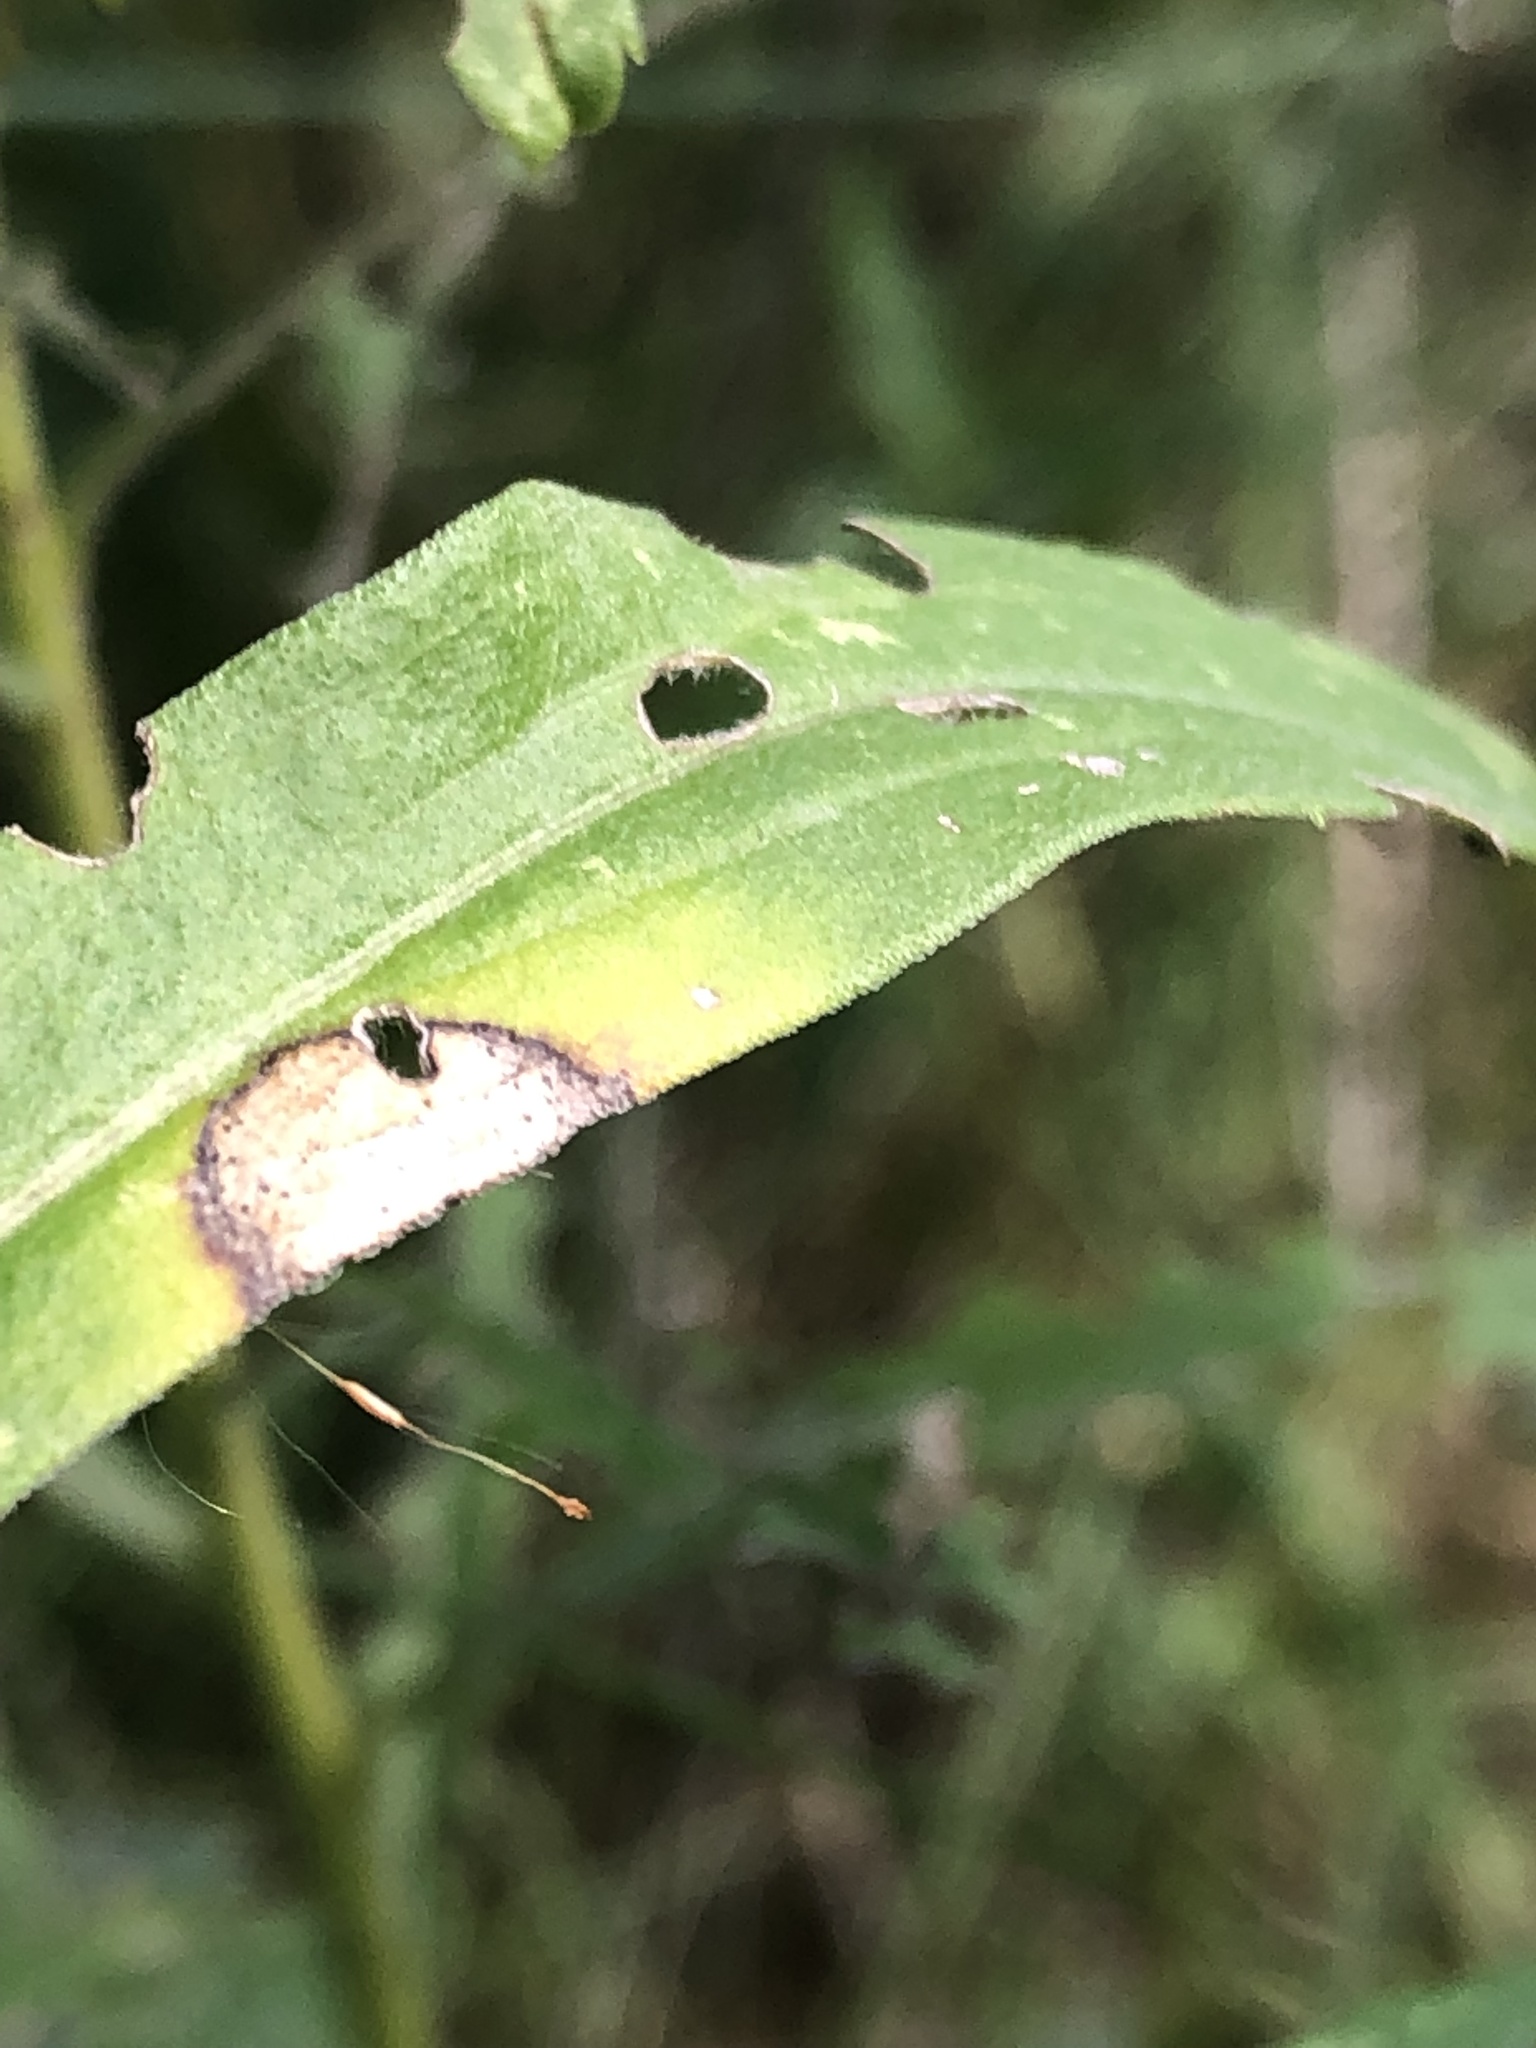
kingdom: Animalia
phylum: Arthropoda
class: Insecta
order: Diptera
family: Cecidomyiidae
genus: Asteromyia
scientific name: Asteromyia carbonifera
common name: Carbonifera goldenrod gall midge
